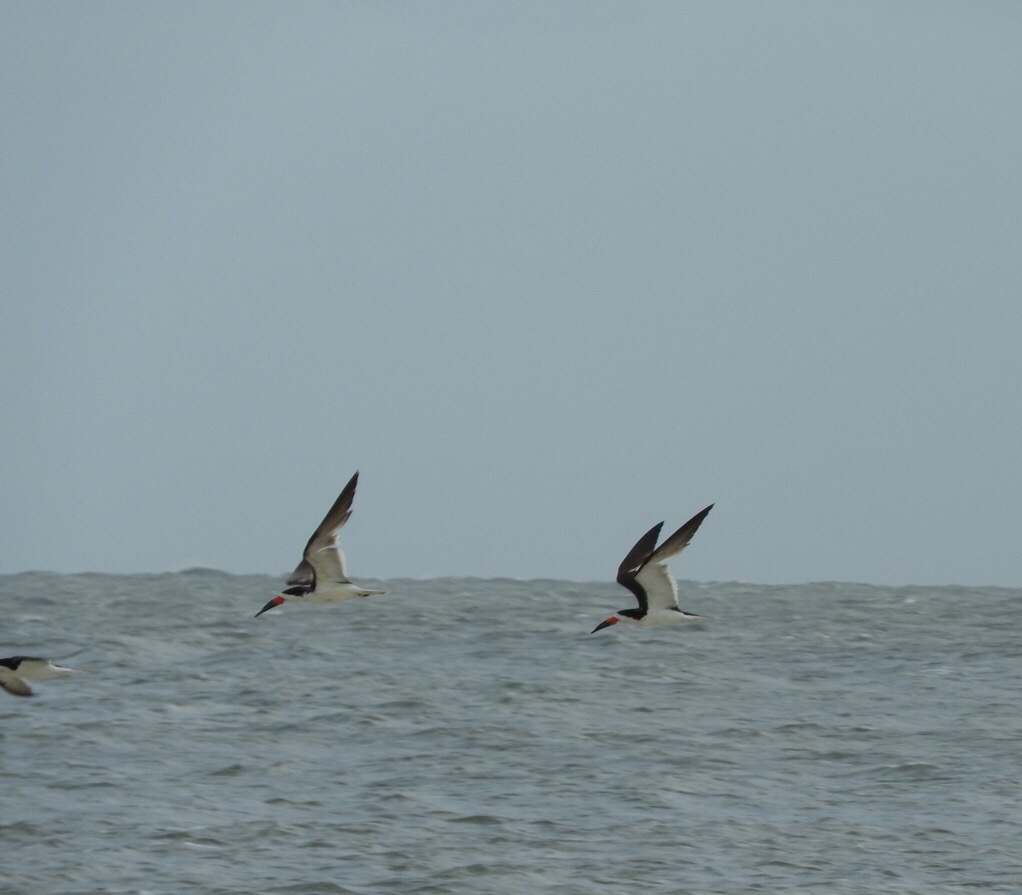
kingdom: Animalia
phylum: Chordata
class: Aves
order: Charadriiformes
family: Laridae
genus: Rynchops
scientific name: Rynchops niger
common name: Black skimmer
